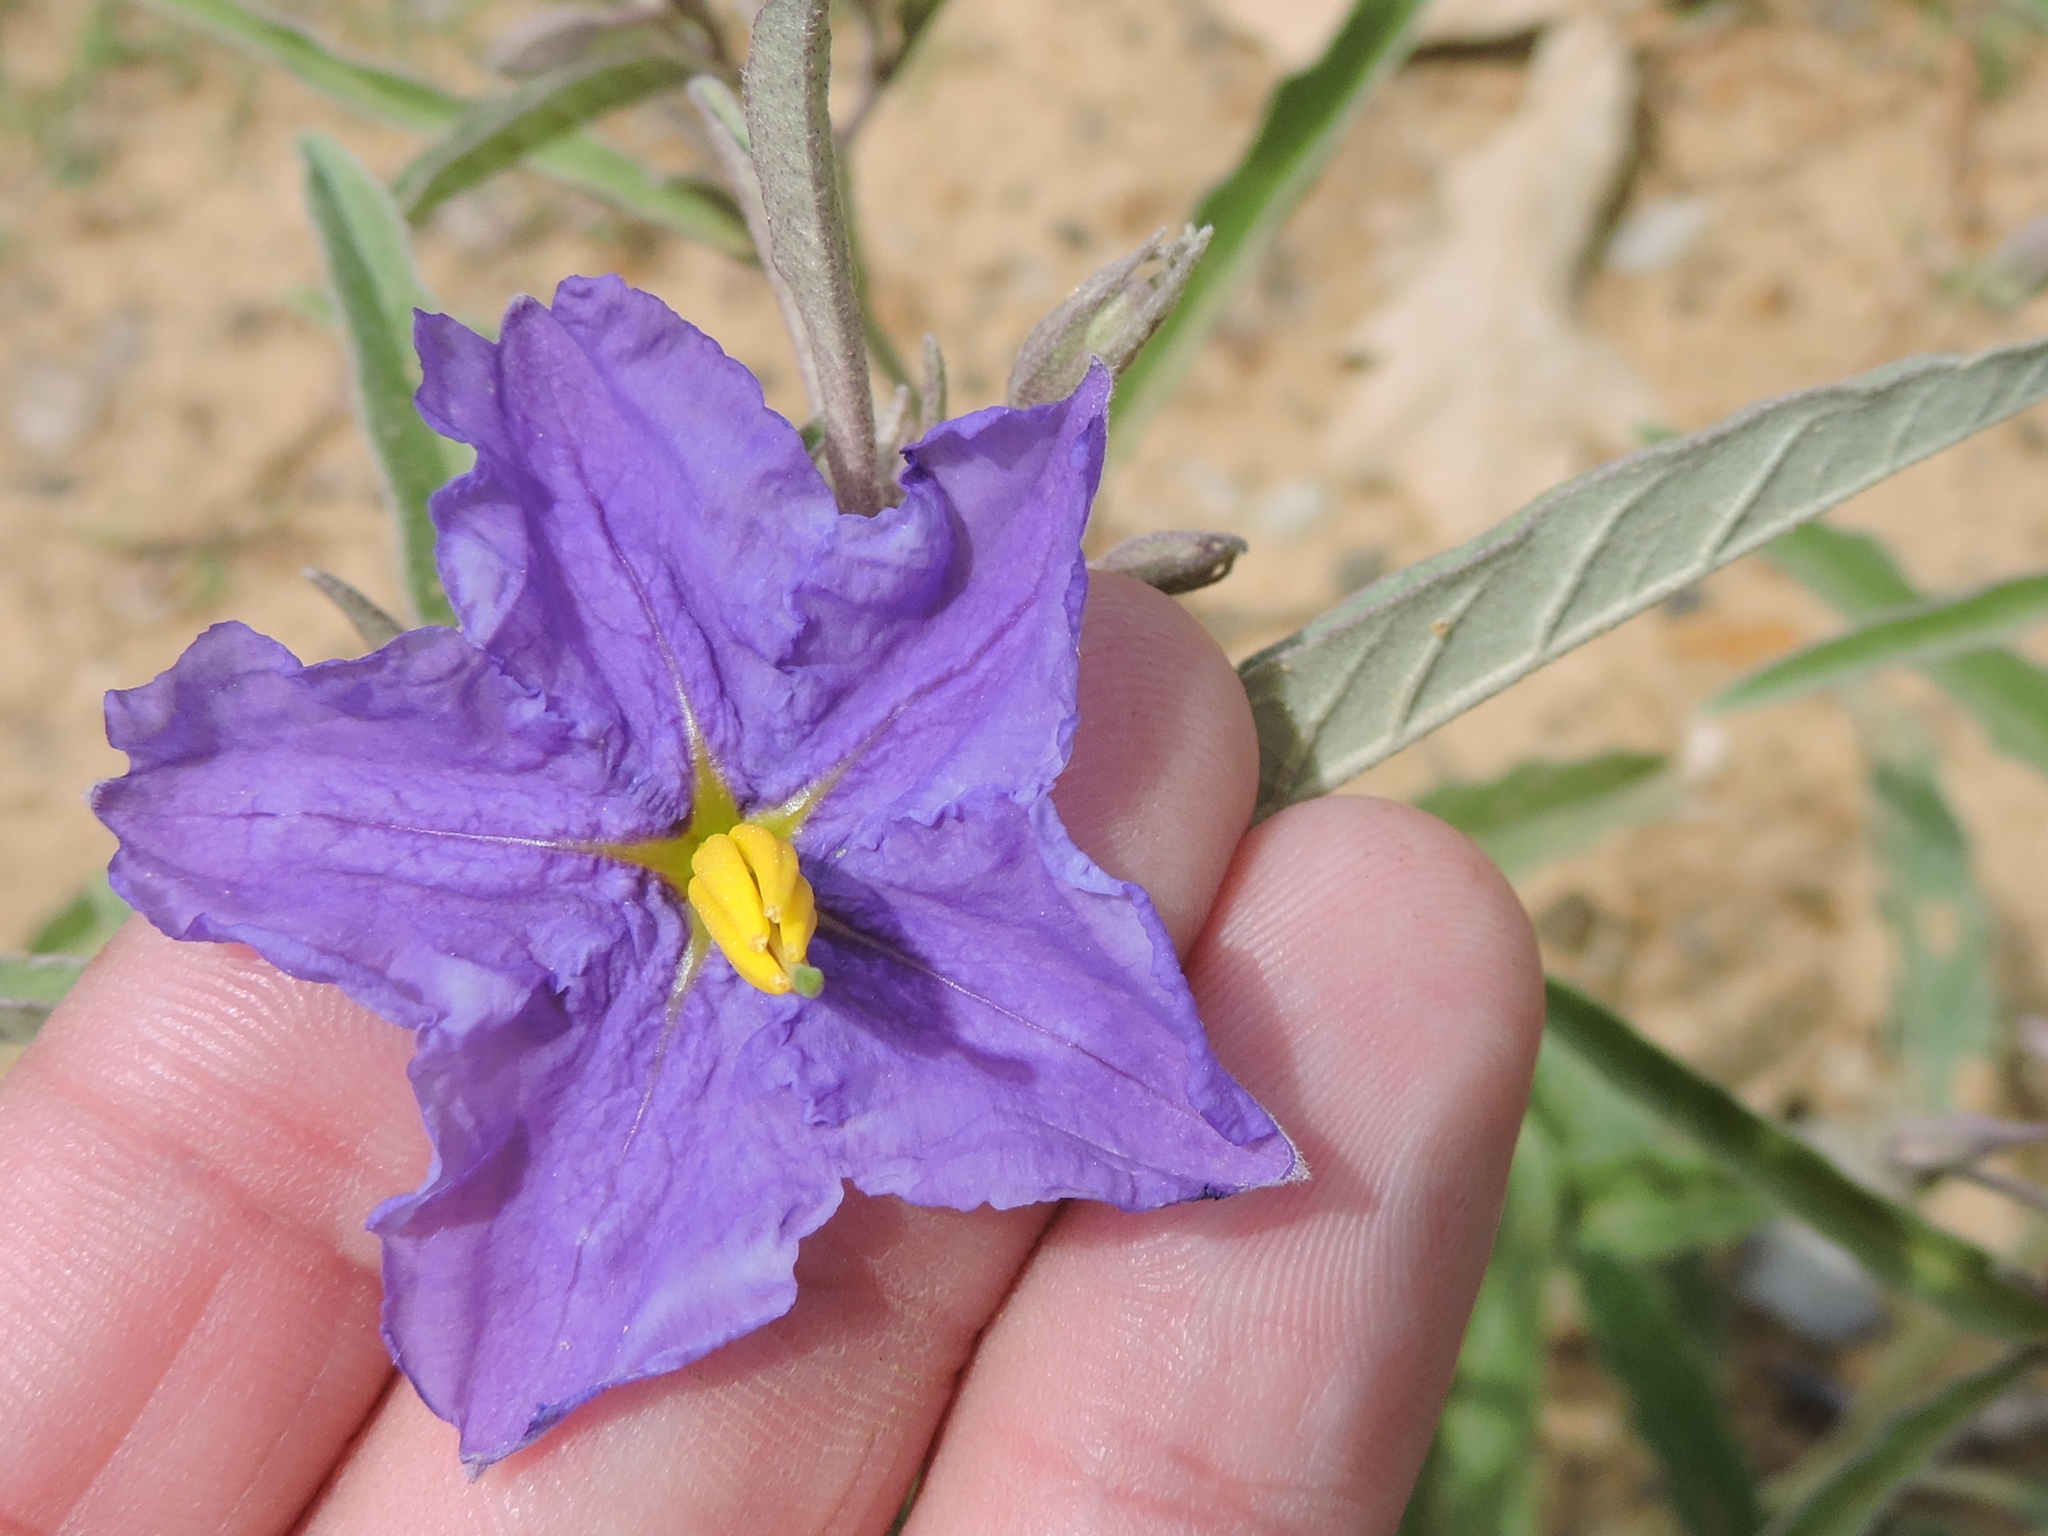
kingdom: Plantae
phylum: Tracheophyta
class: Magnoliopsida
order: Solanales
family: Solanaceae
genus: Solanum
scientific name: Solanum elaeagnifolium
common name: Silverleaf nightshade
